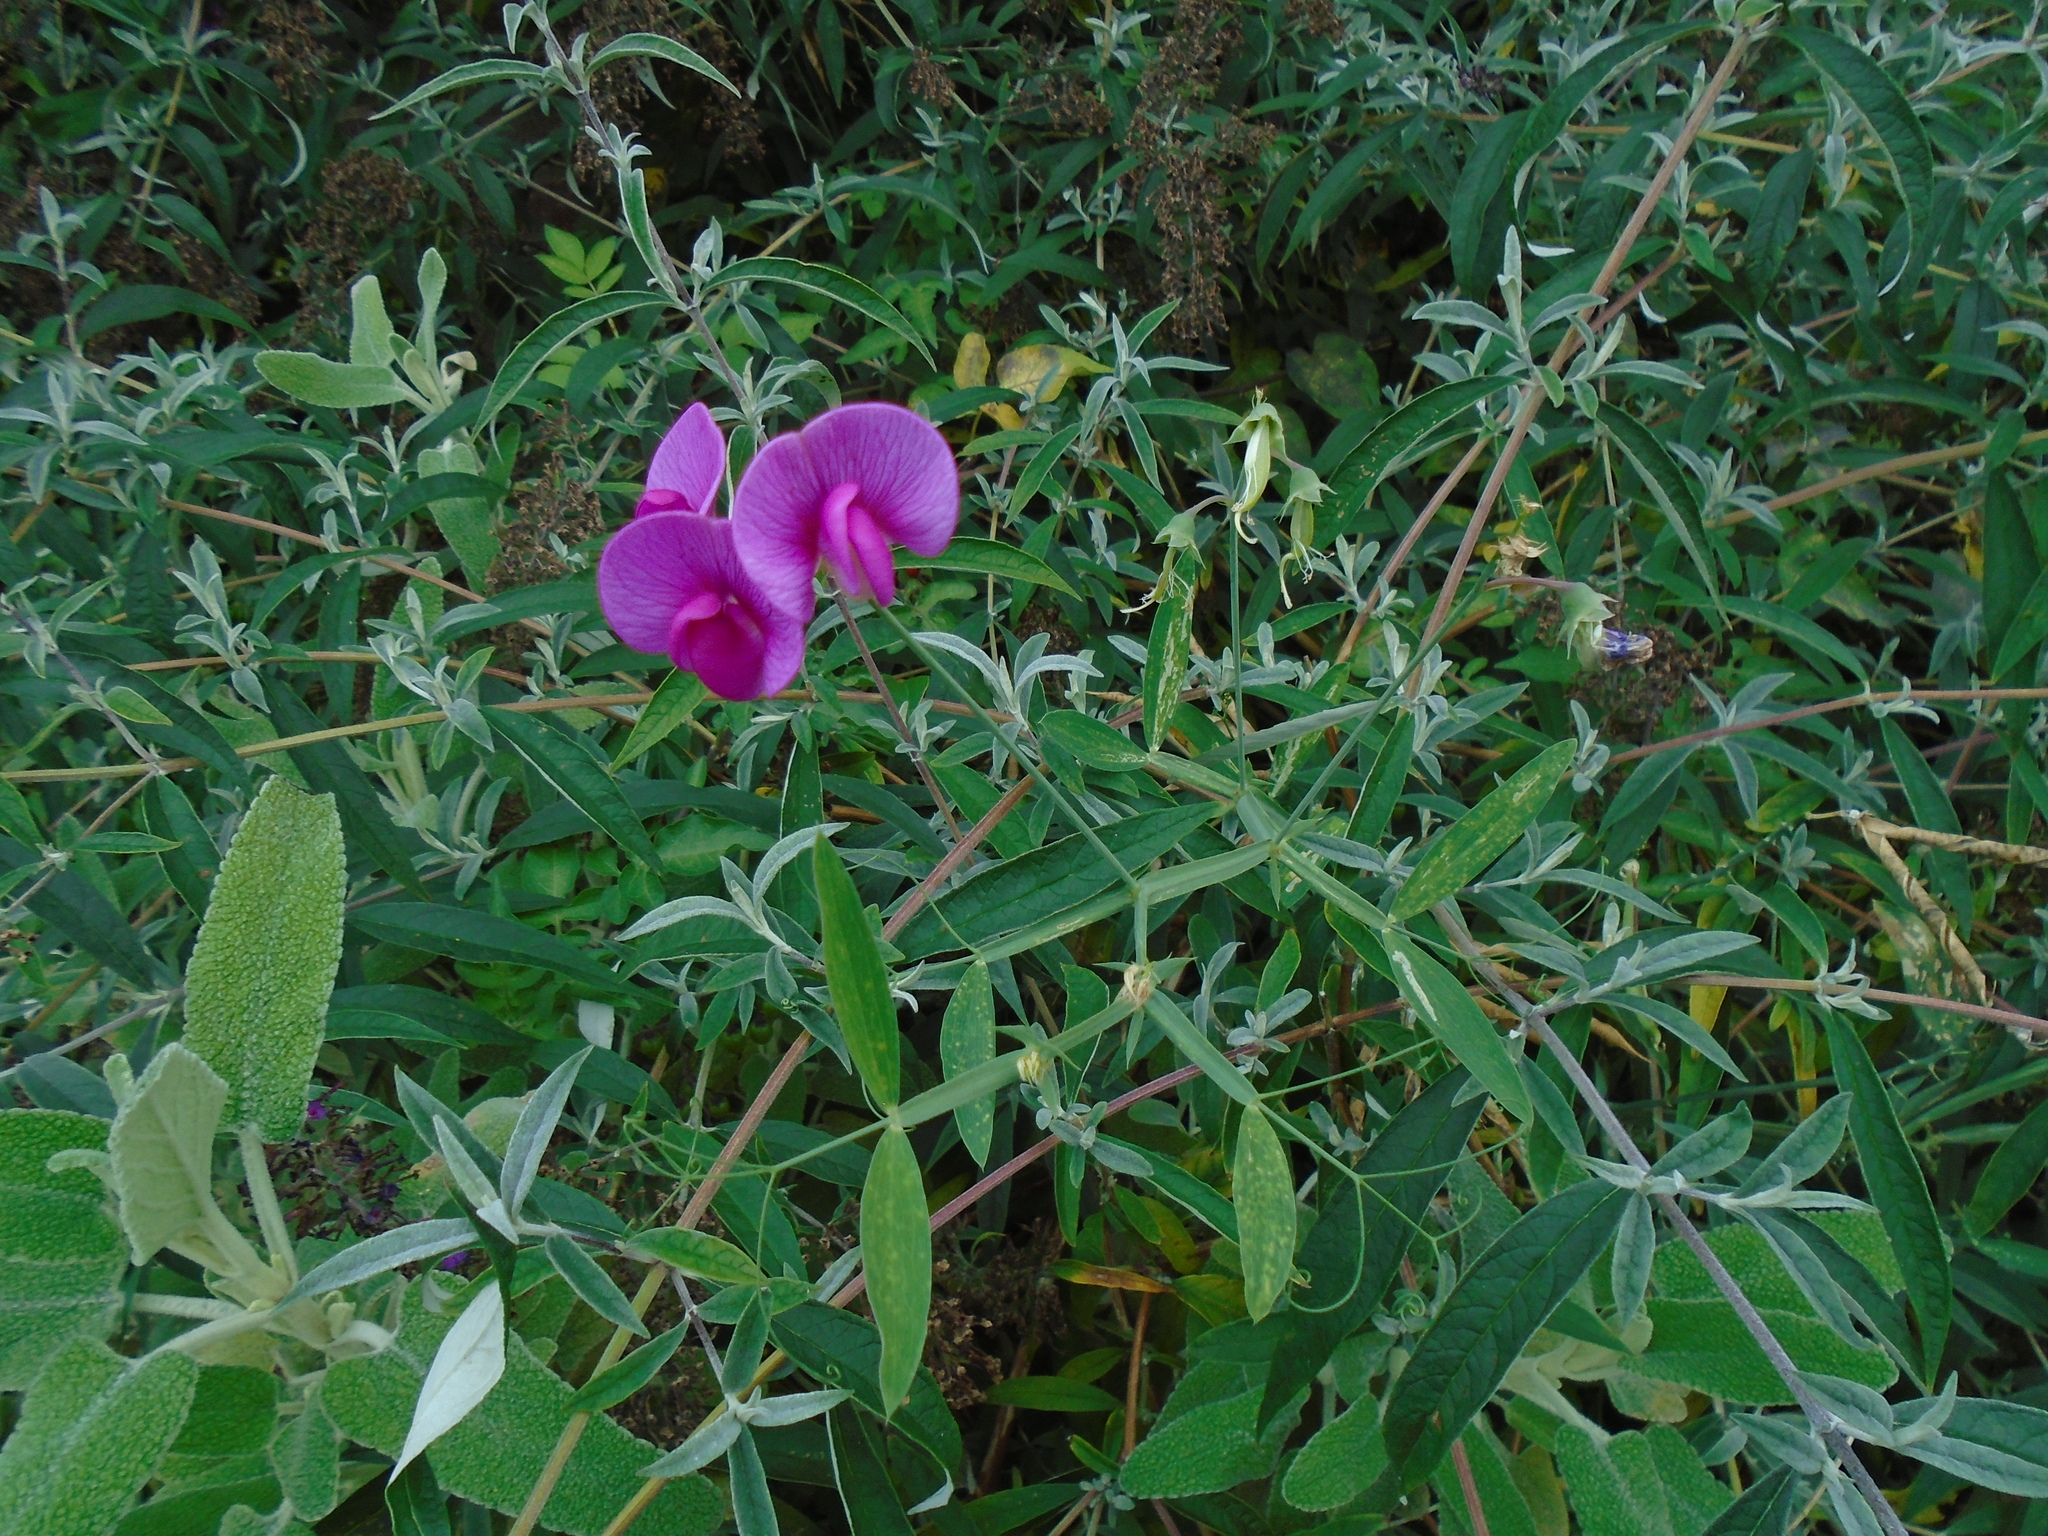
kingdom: Plantae
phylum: Tracheophyta
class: Magnoliopsida
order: Fabales
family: Fabaceae
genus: Lathyrus
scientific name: Lathyrus latifolius
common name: Perennial pea
